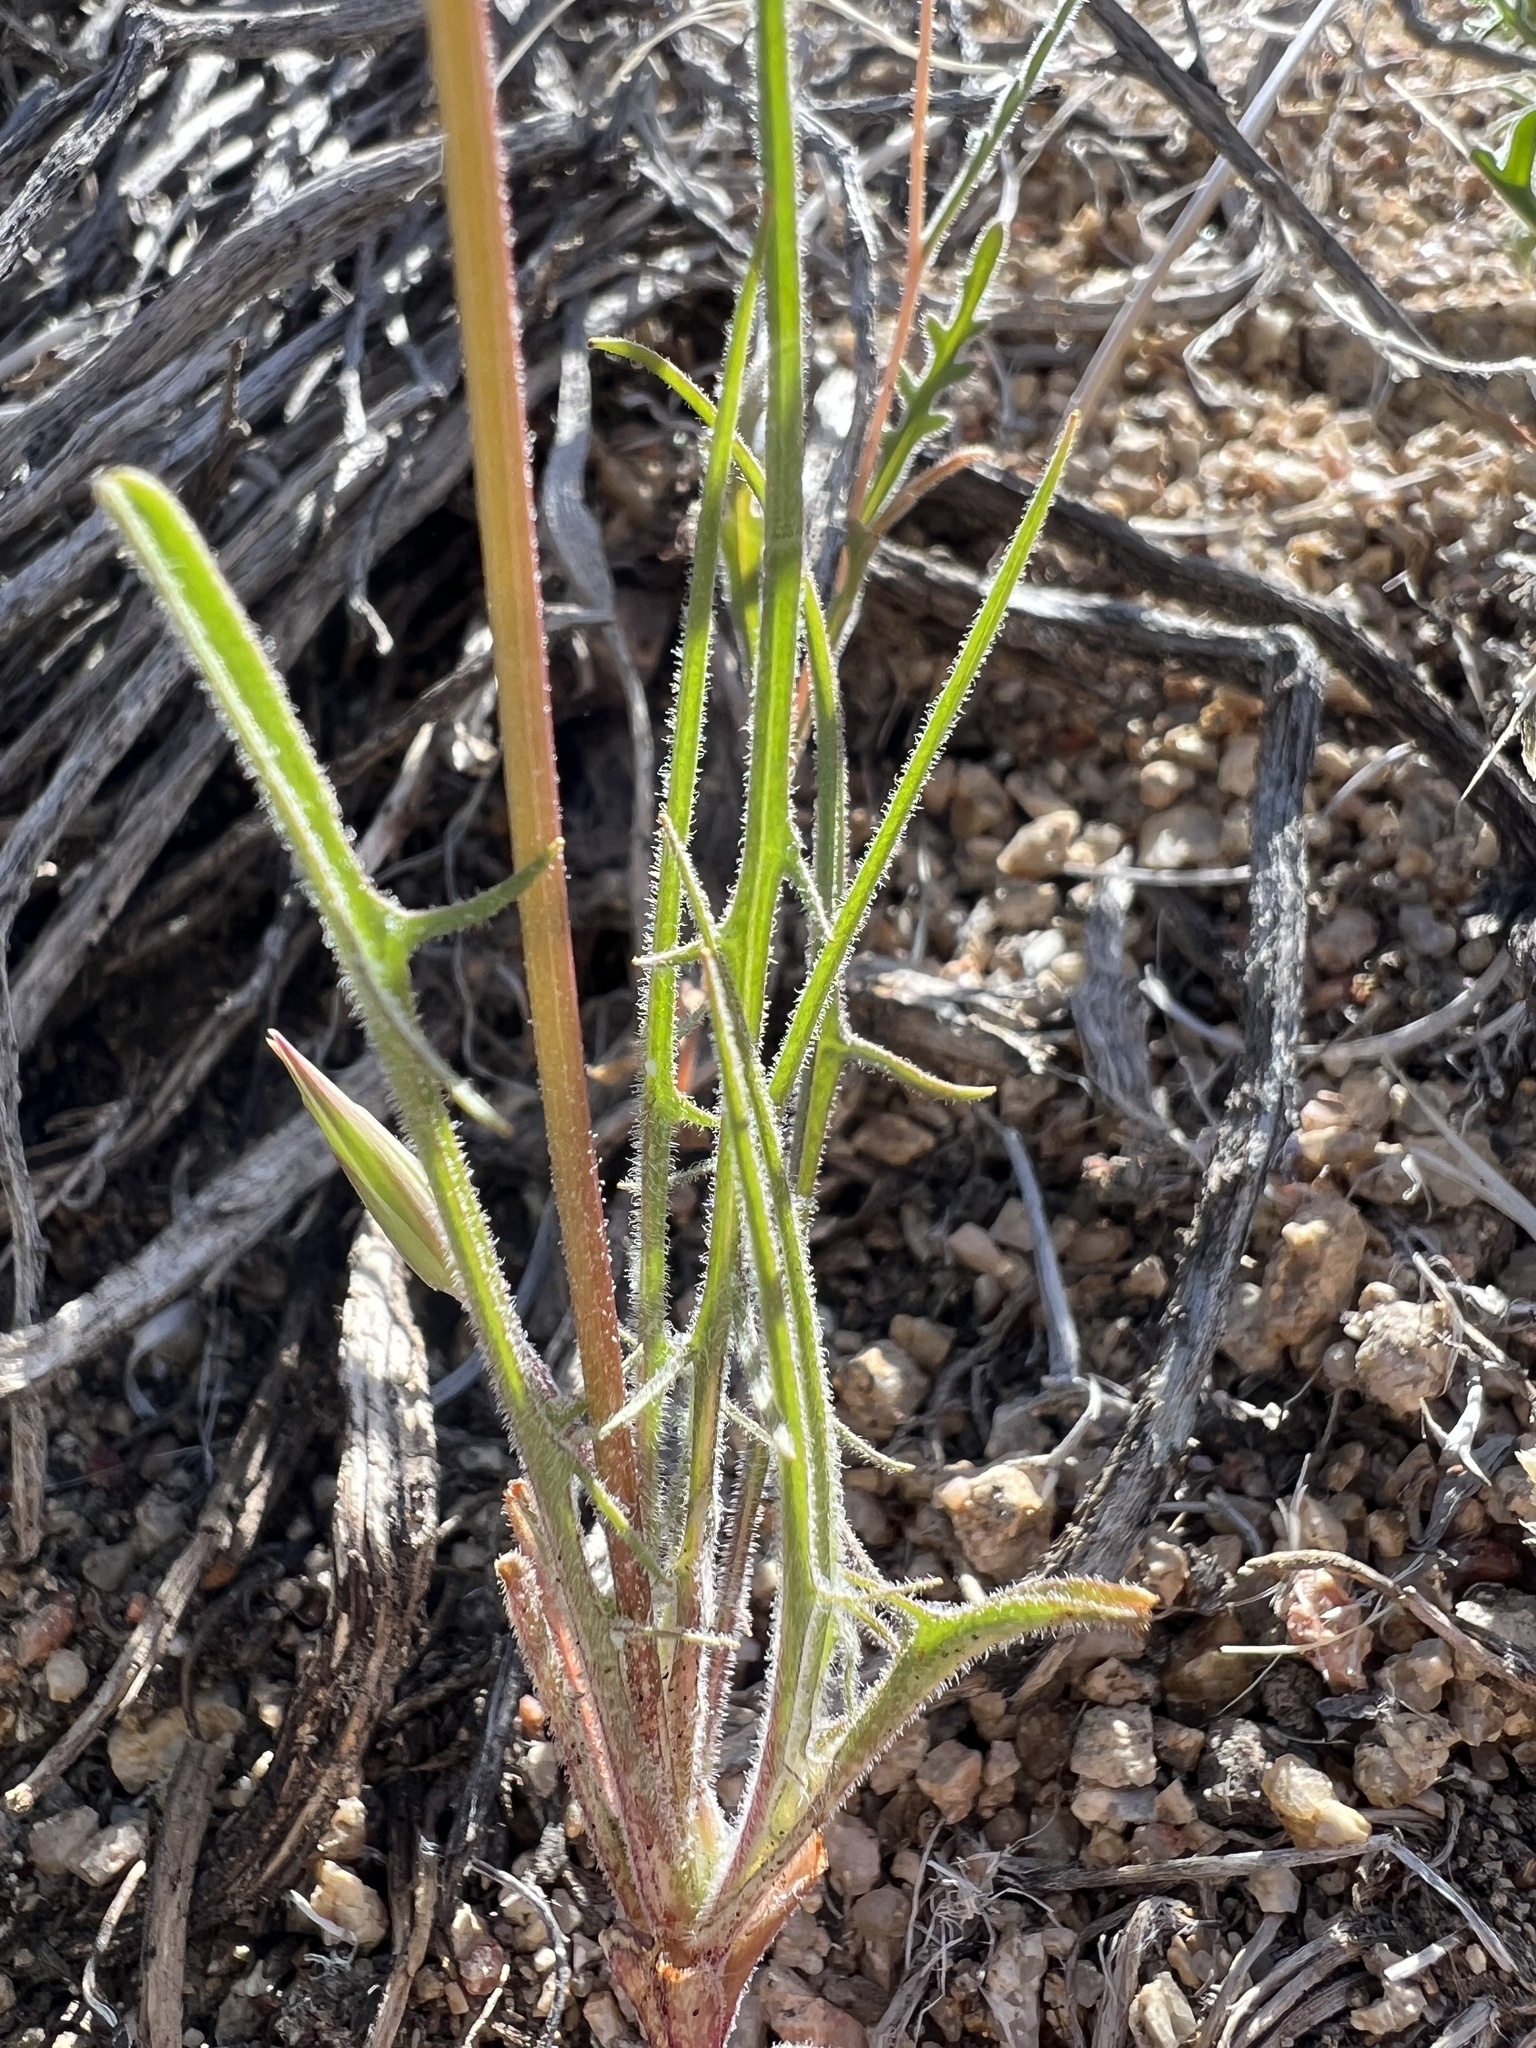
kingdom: Plantae
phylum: Tracheophyta
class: Magnoliopsida
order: Asterales
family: Asteraceae
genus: Microseris
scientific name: Microseris lindleyi
